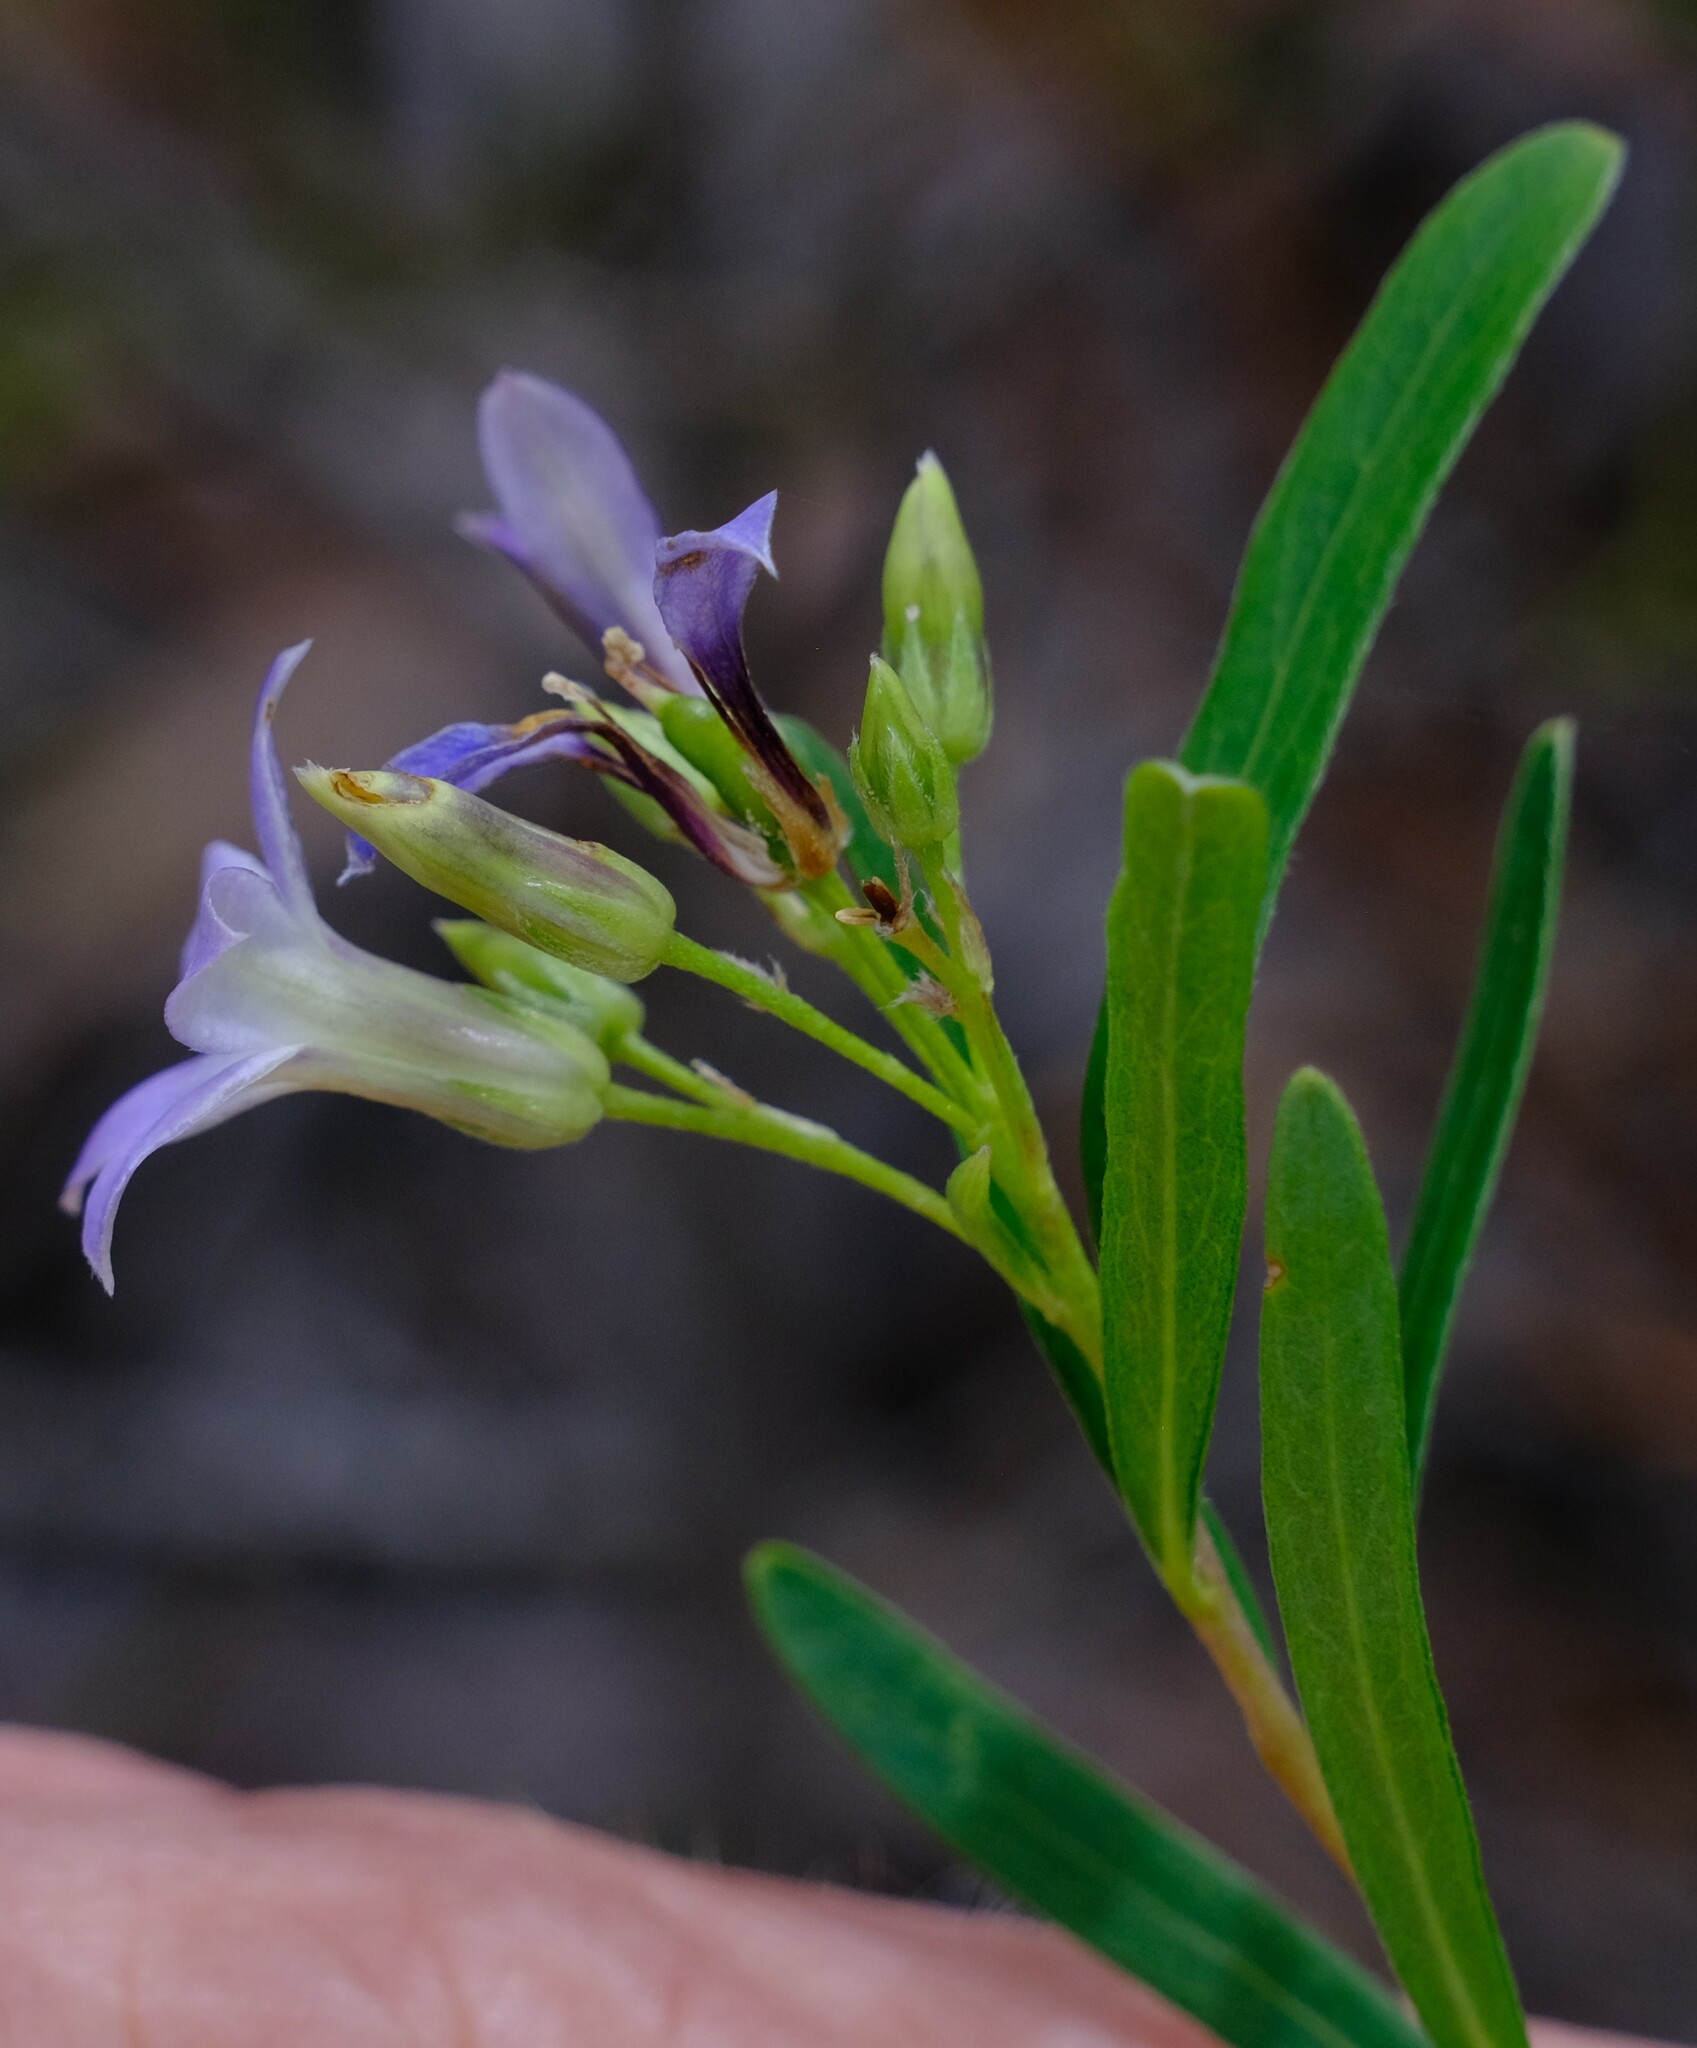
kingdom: Plantae
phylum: Tracheophyta
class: Magnoliopsida
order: Apiales
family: Pittosporaceae
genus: Billardiera
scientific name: Billardiera cymosa
